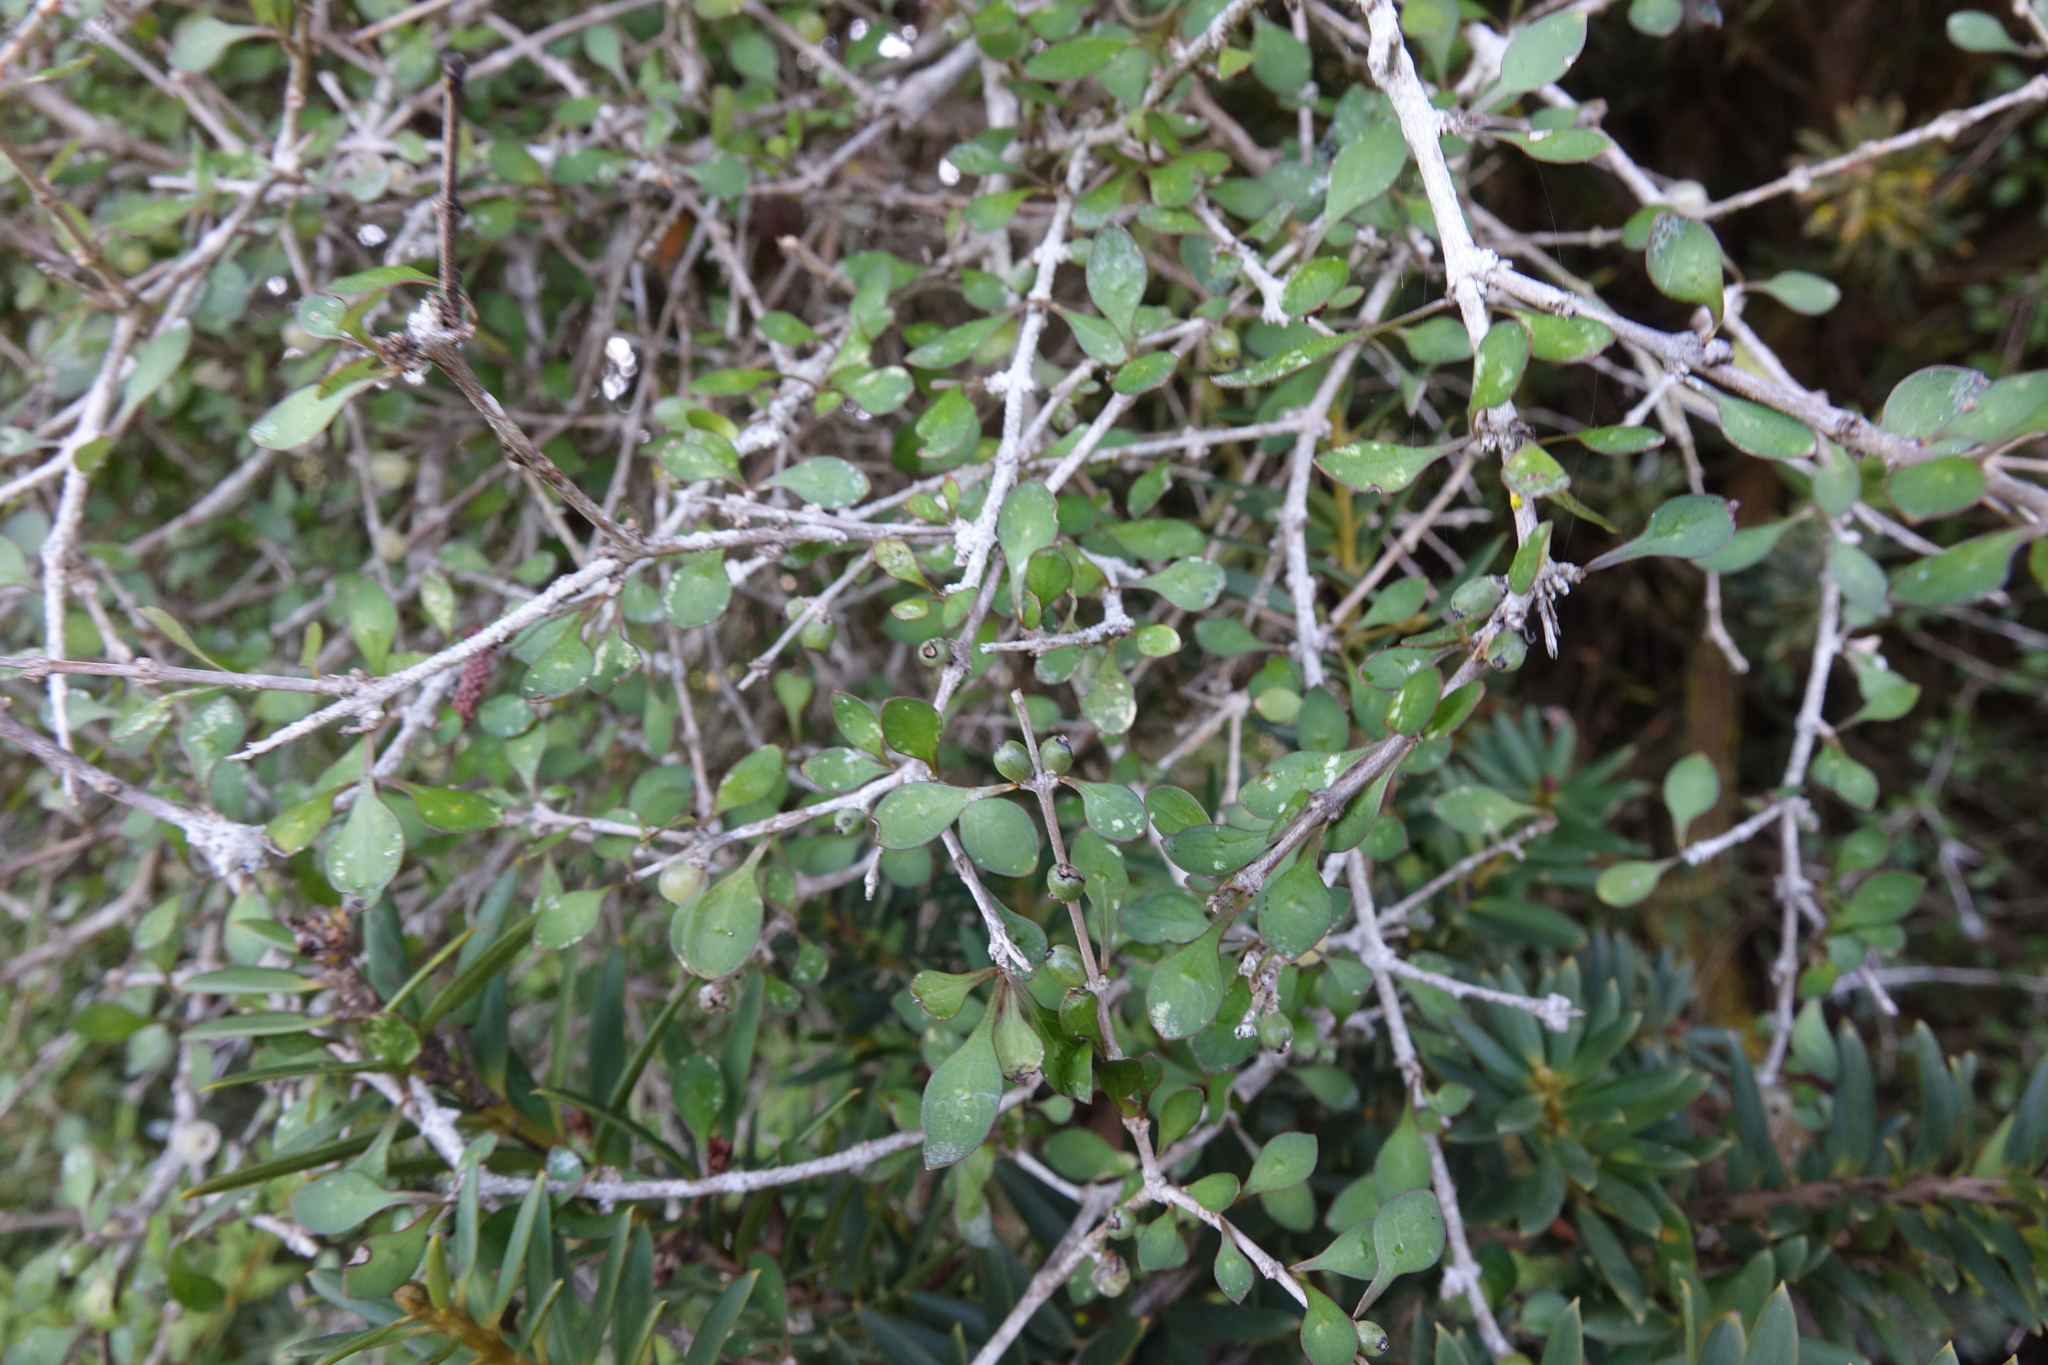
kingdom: Plantae
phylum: Tracheophyta
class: Magnoliopsida
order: Gentianales
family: Rubiaceae
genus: Coprosma
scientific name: Coprosma virescens
